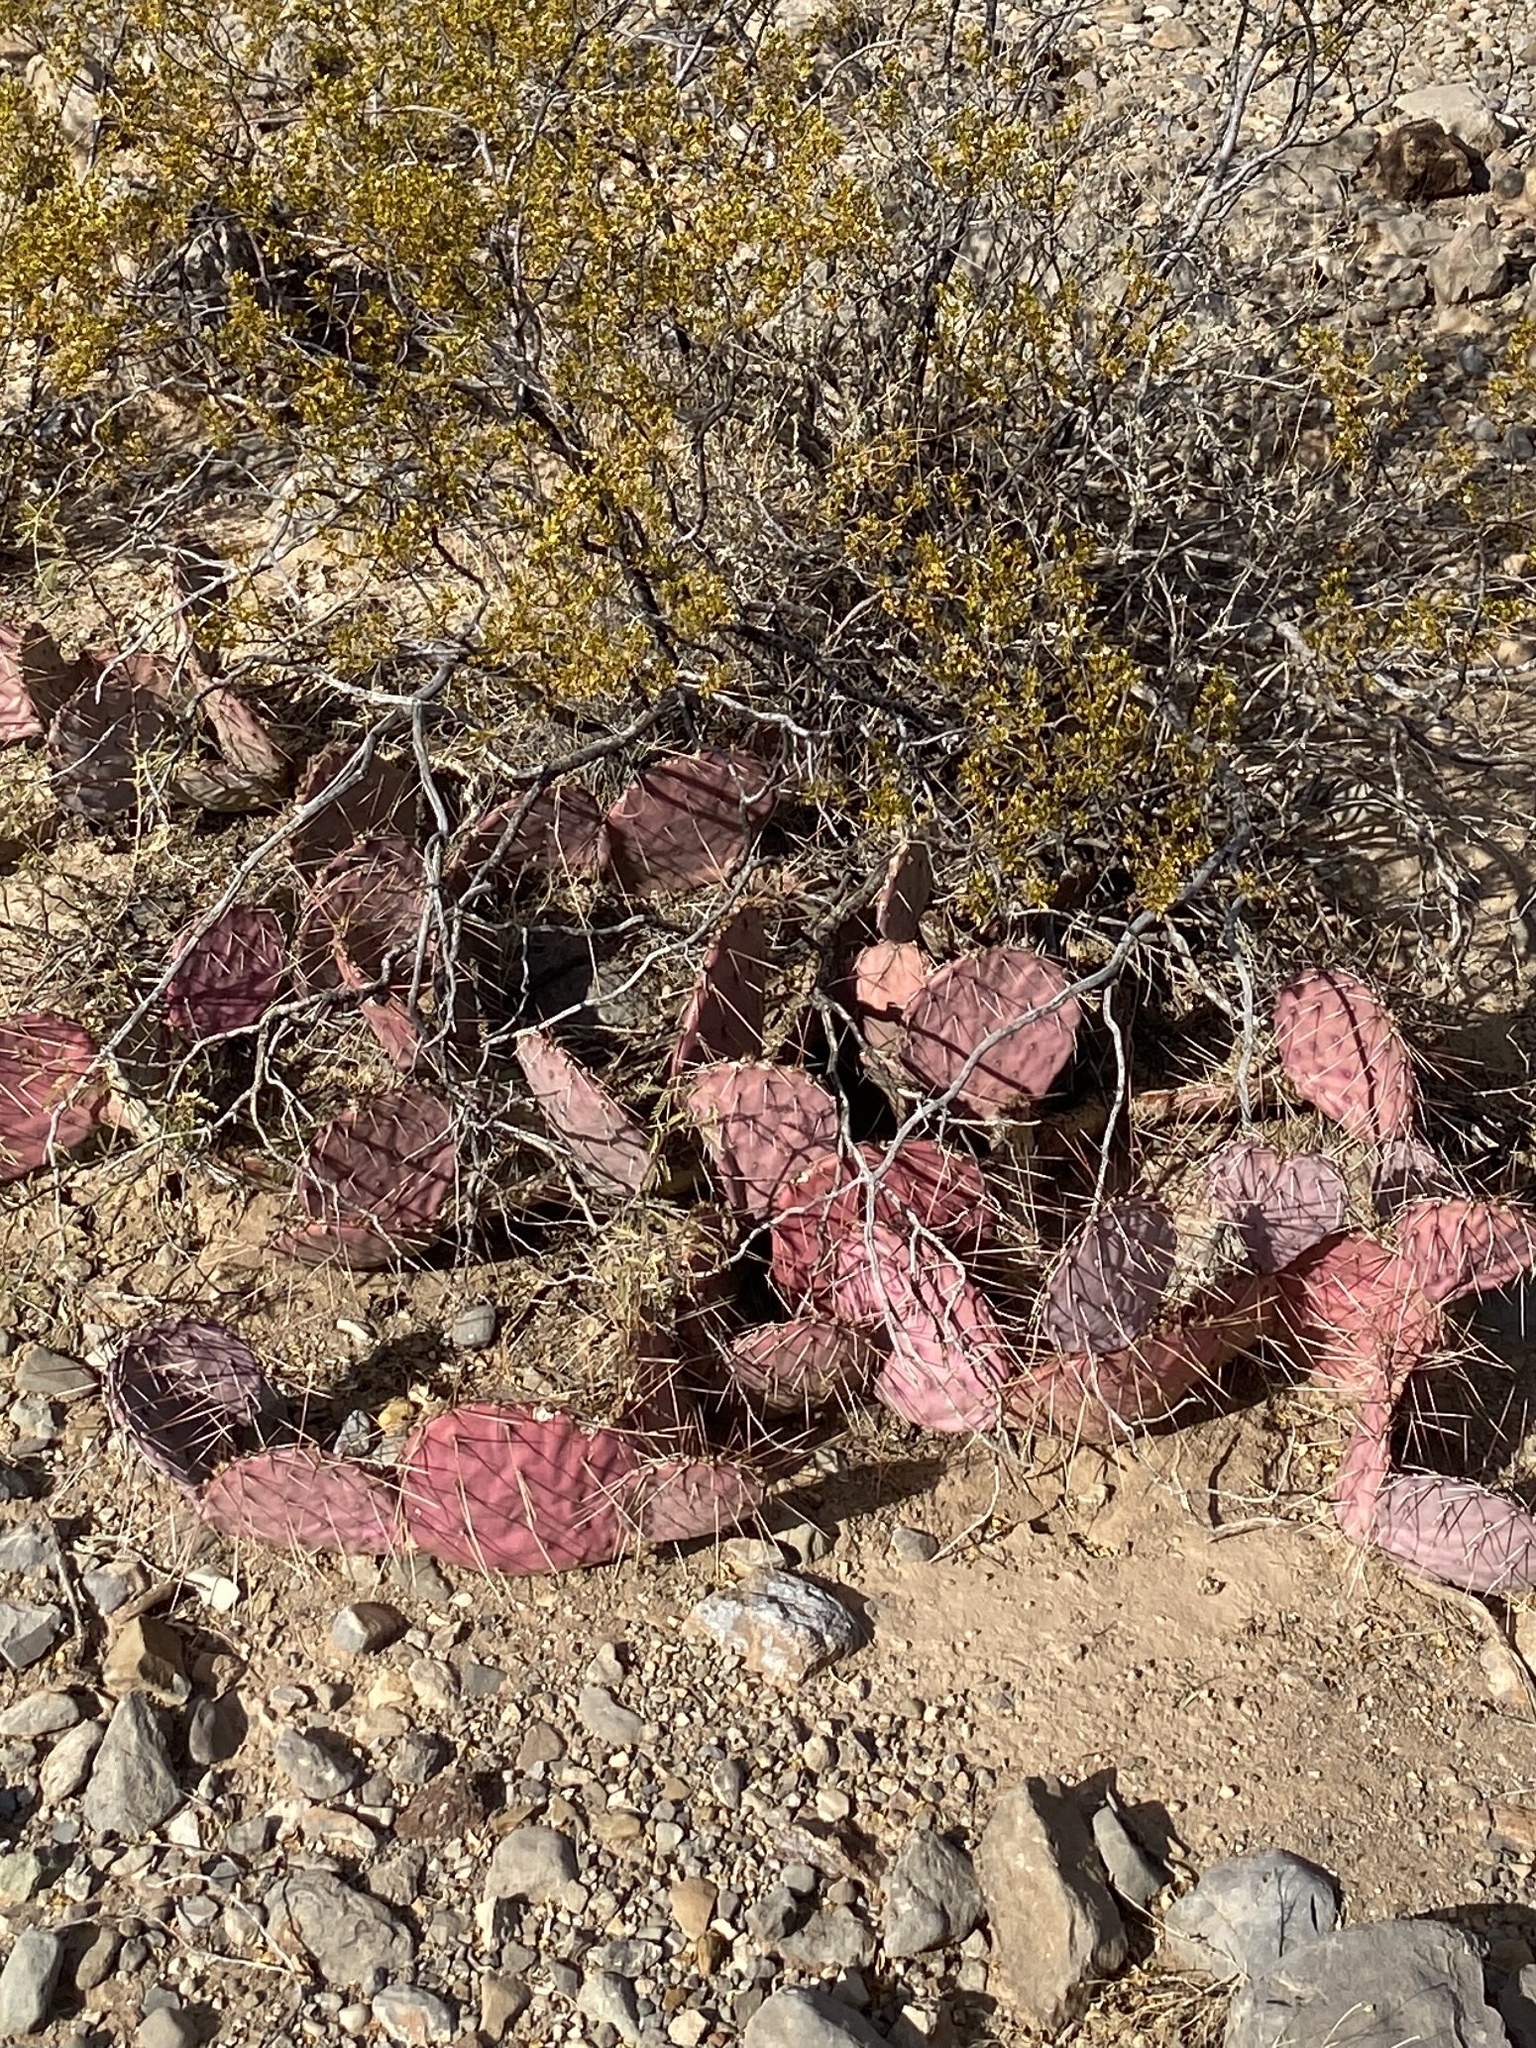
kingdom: Plantae
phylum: Tracheophyta
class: Magnoliopsida
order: Caryophyllales
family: Cactaceae
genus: Opuntia
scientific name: Opuntia macrocentra
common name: Purple prickly-pear
